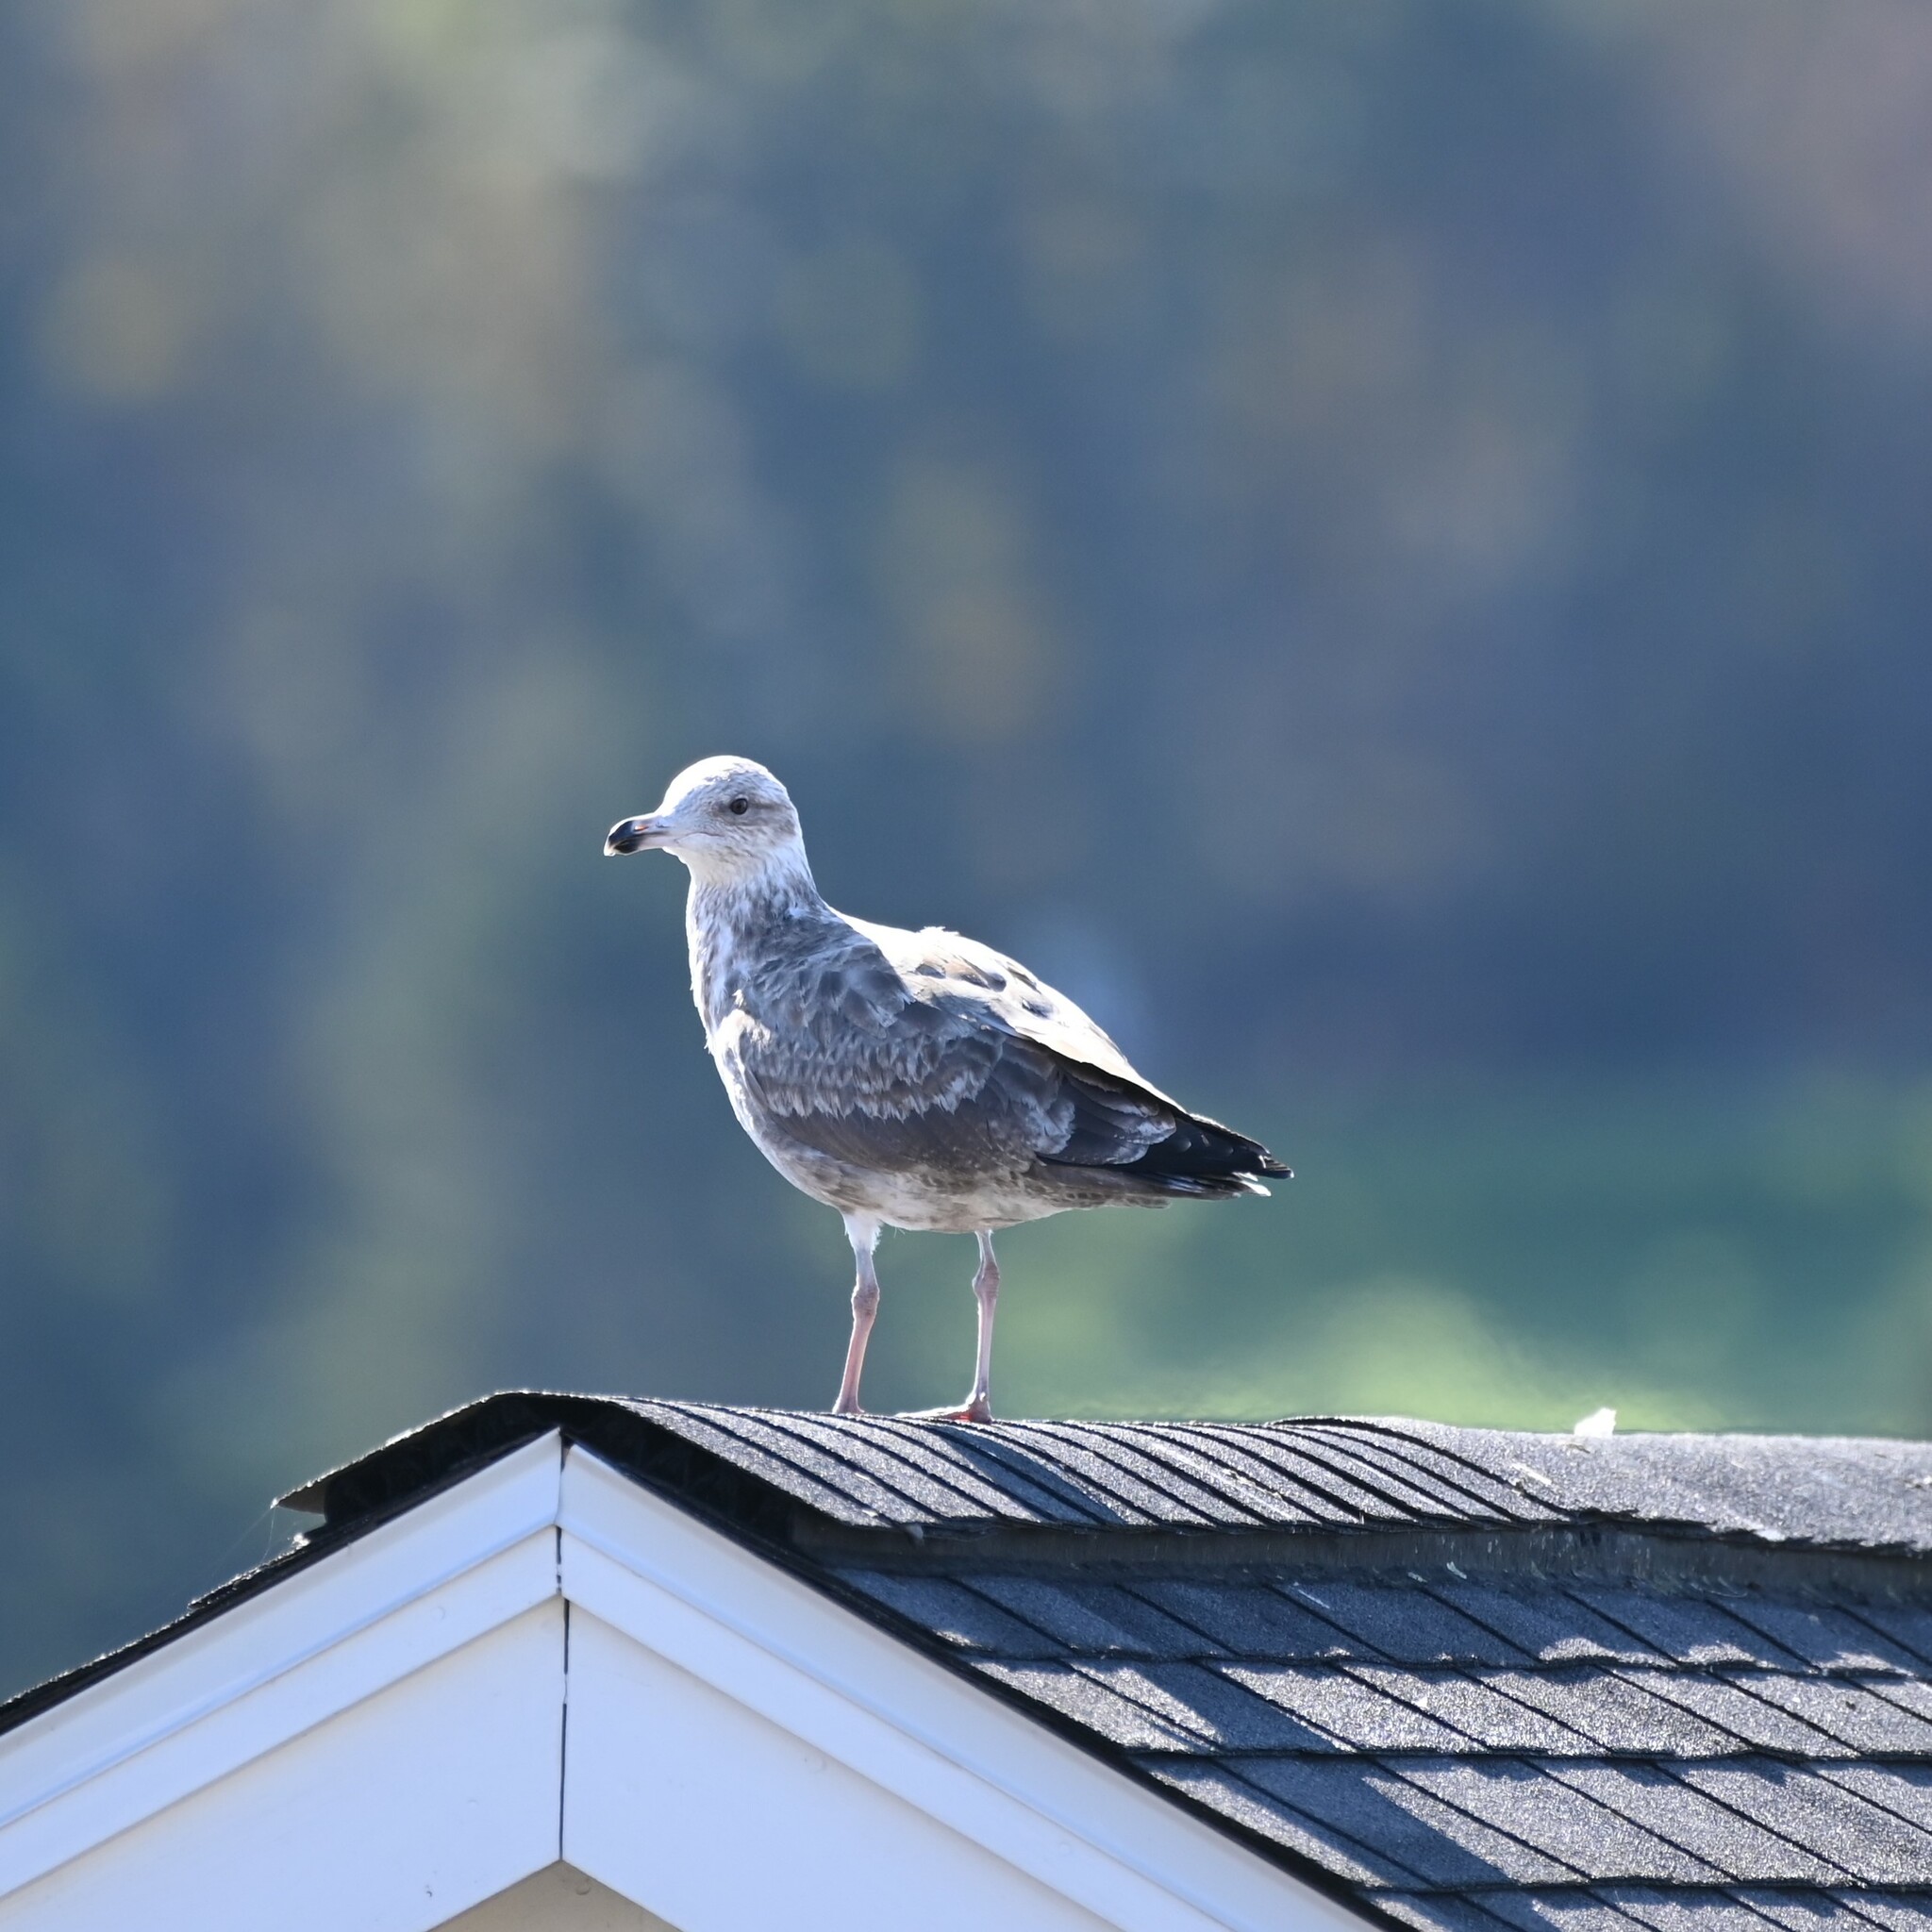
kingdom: Animalia
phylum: Chordata
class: Aves
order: Charadriiformes
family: Laridae
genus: Larus
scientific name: Larus argentatus
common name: Herring gull
